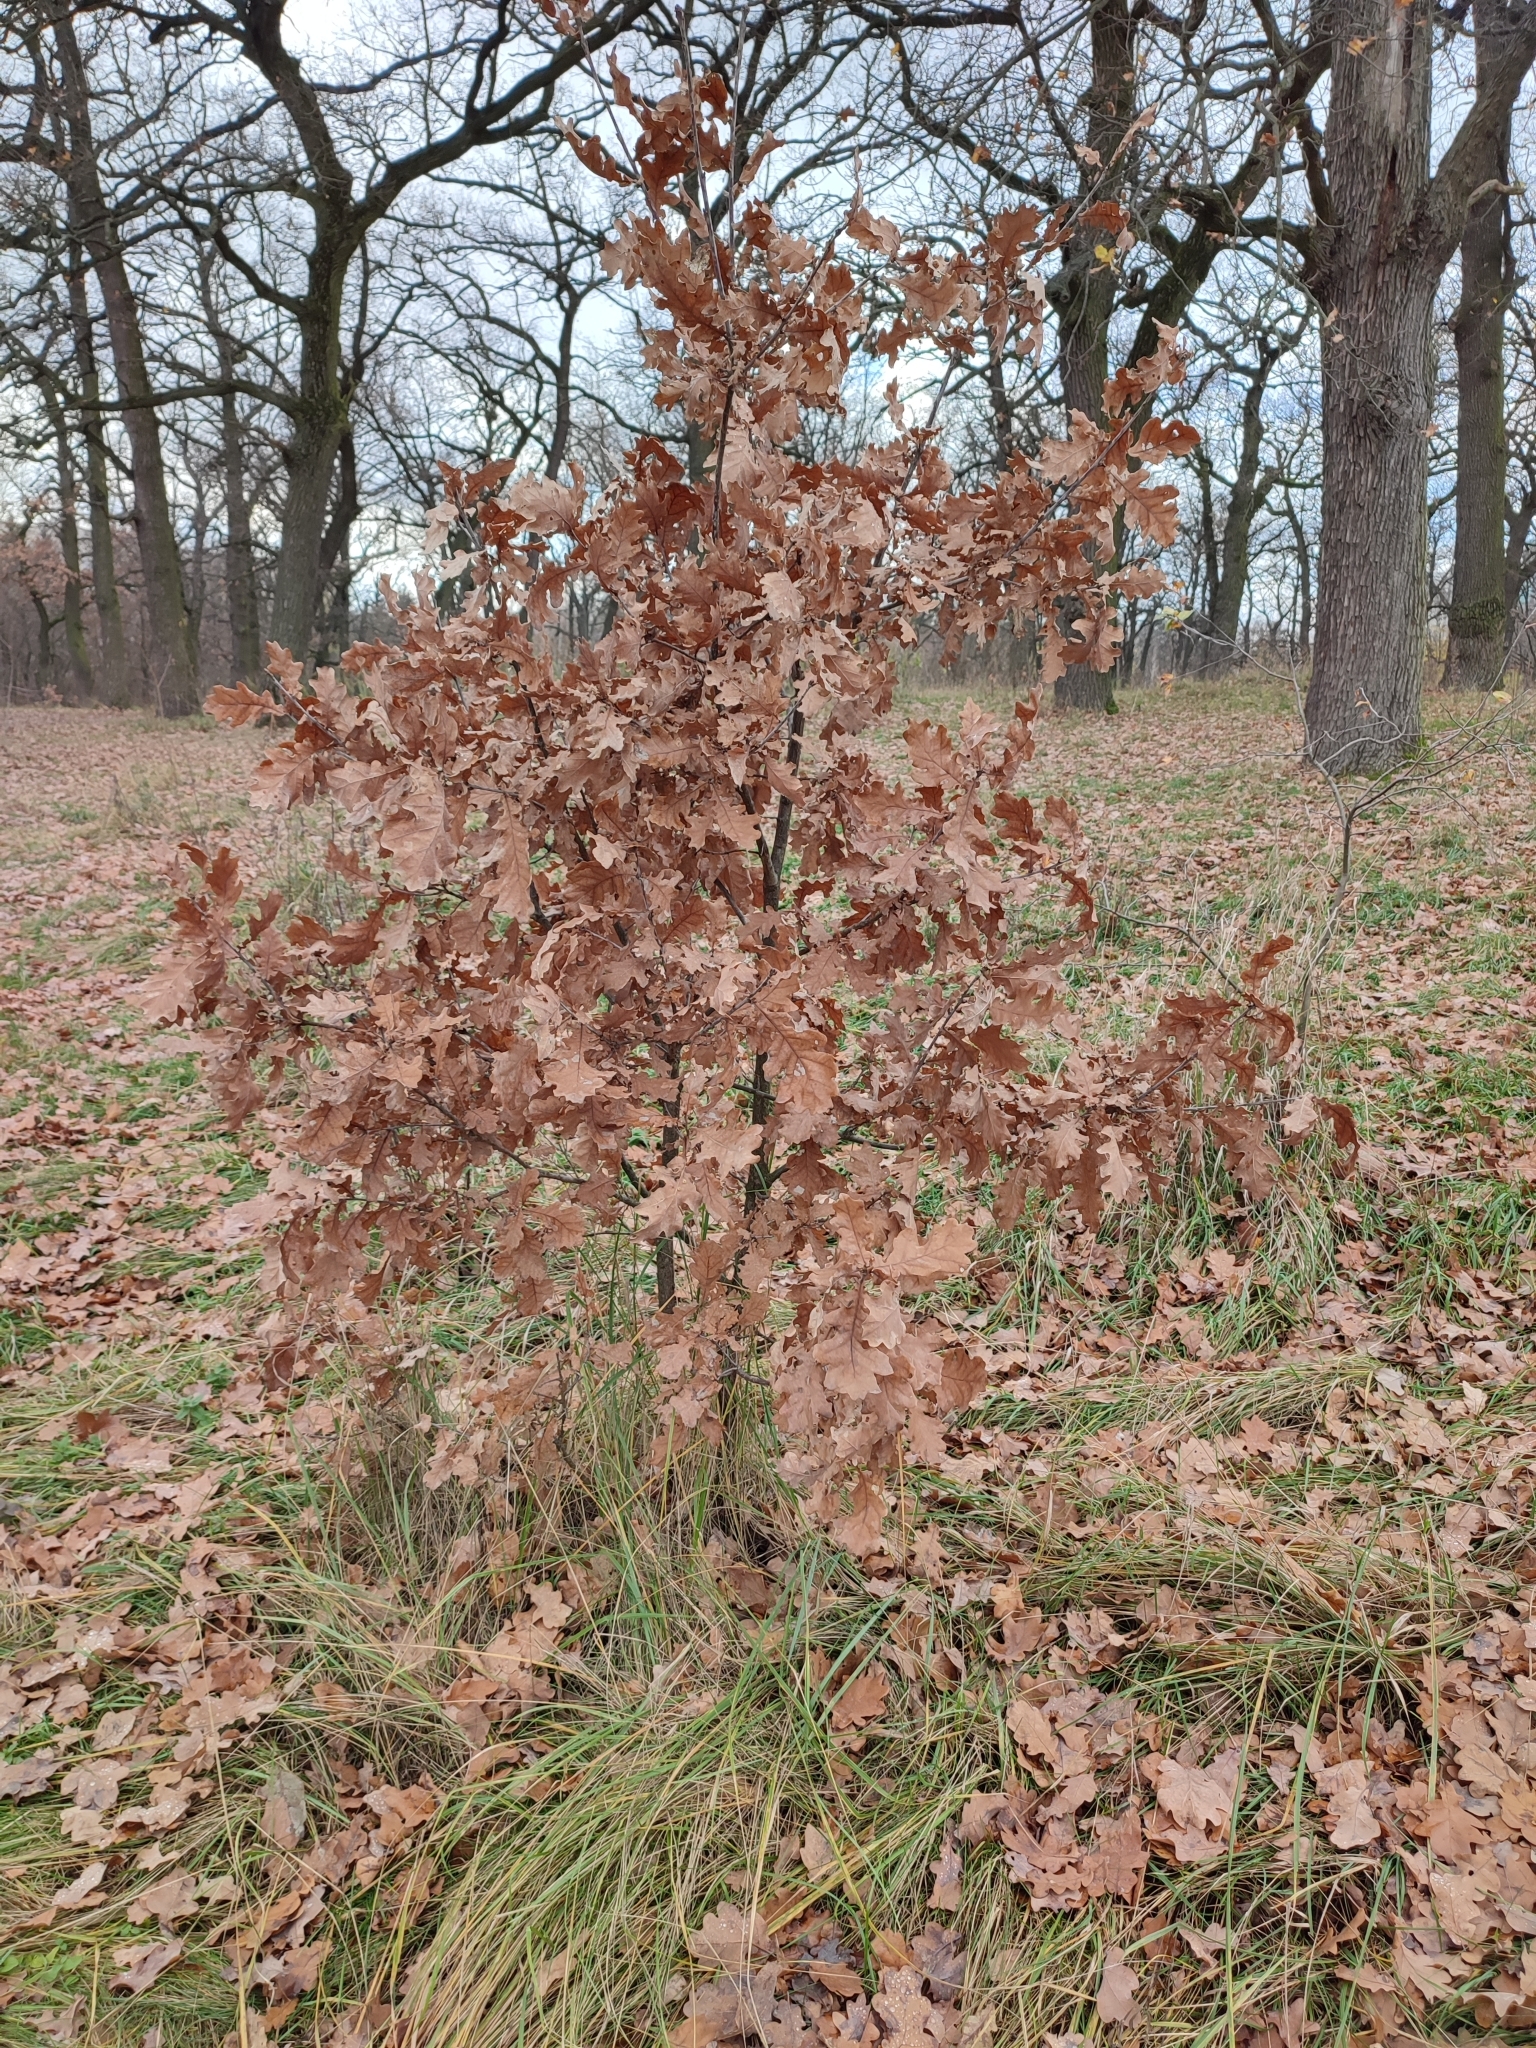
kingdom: Plantae
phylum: Tracheophyta
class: Magnoliopsida
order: Fagales
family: Fagaceae
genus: Quercus
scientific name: Quercus robur
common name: Pedunculate oak
